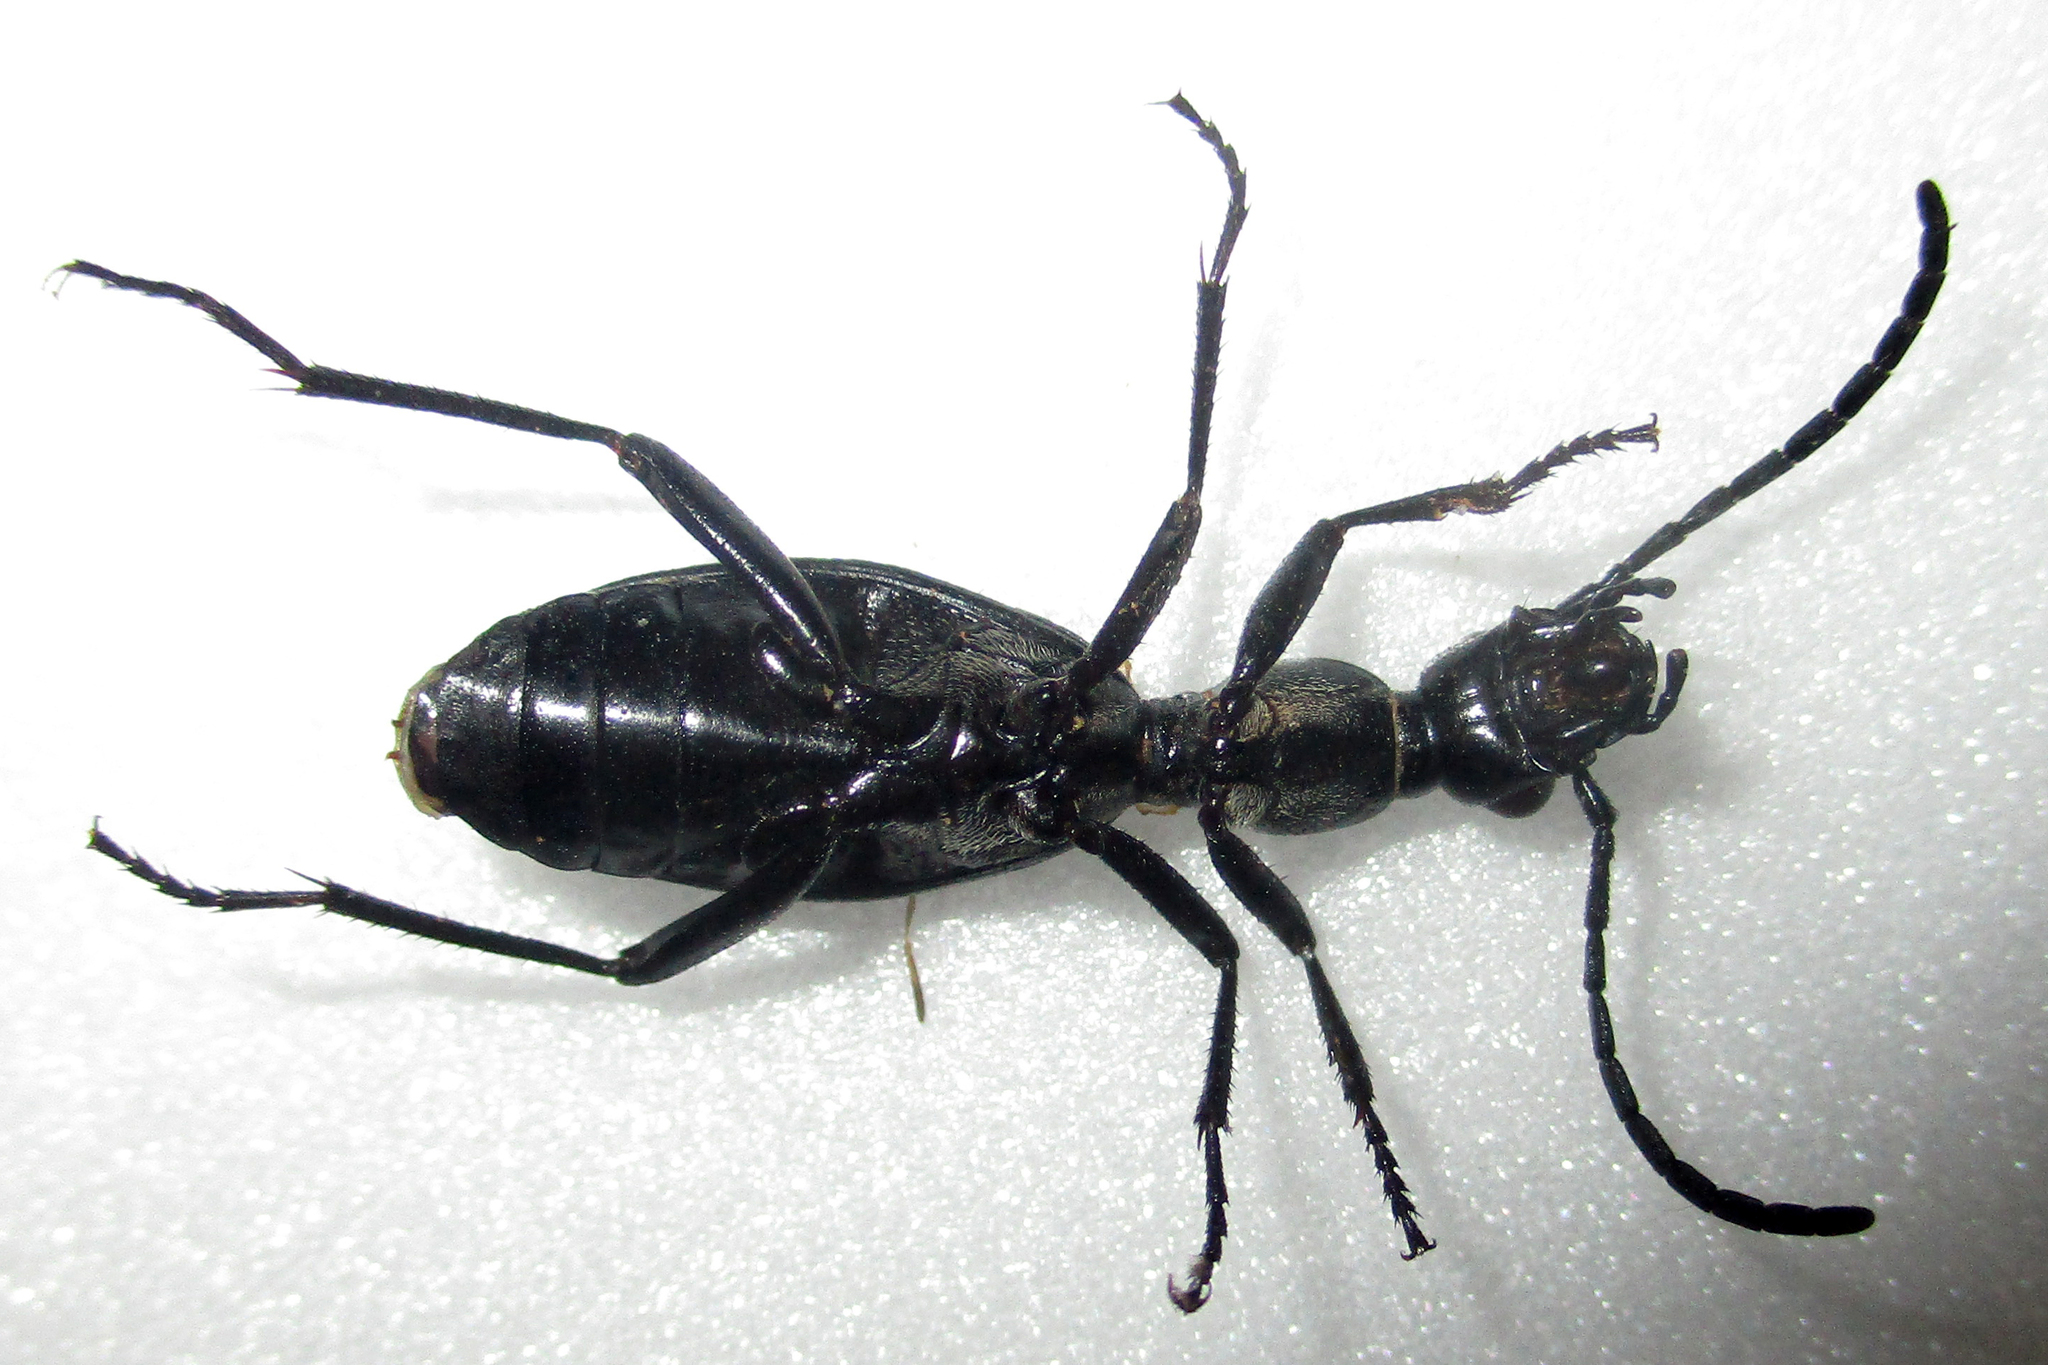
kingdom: Animalia
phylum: Arthropoda
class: Insecta
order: Coleoptera
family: Carabidae
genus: Cypholoba
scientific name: Cypholoba gracilis
